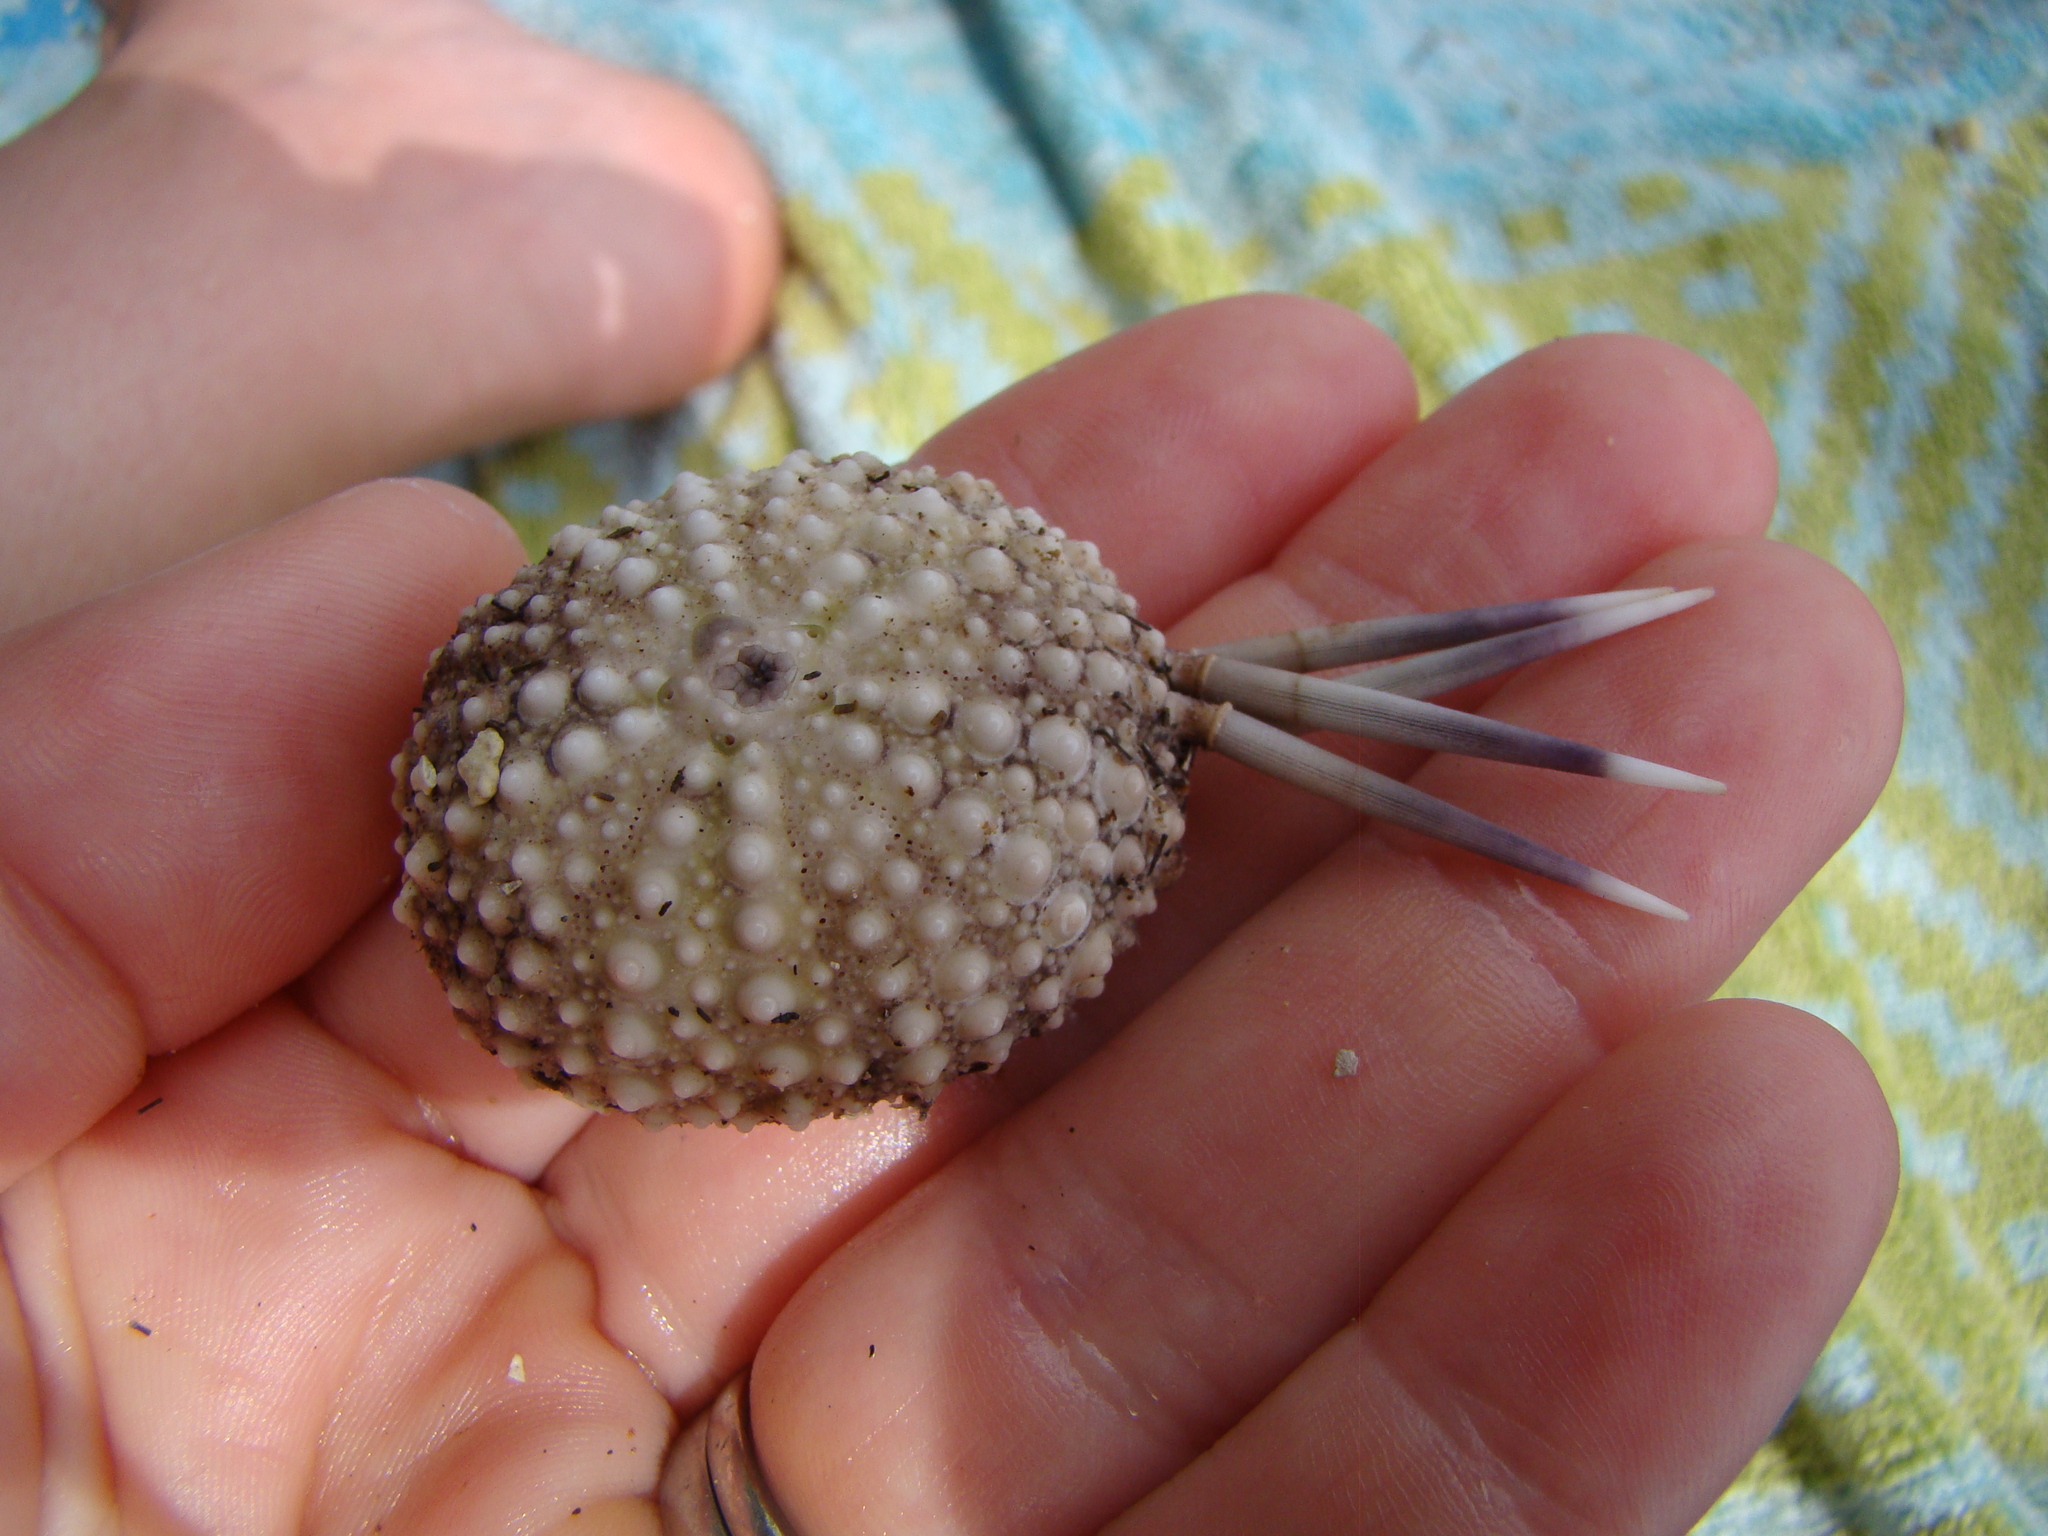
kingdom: Animalia
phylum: Echinodermata
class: Echinoidea
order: Camarodonta
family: Echinometridae
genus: Echinometra
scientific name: Echinometra mathaei
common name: Rock-boring urchin
